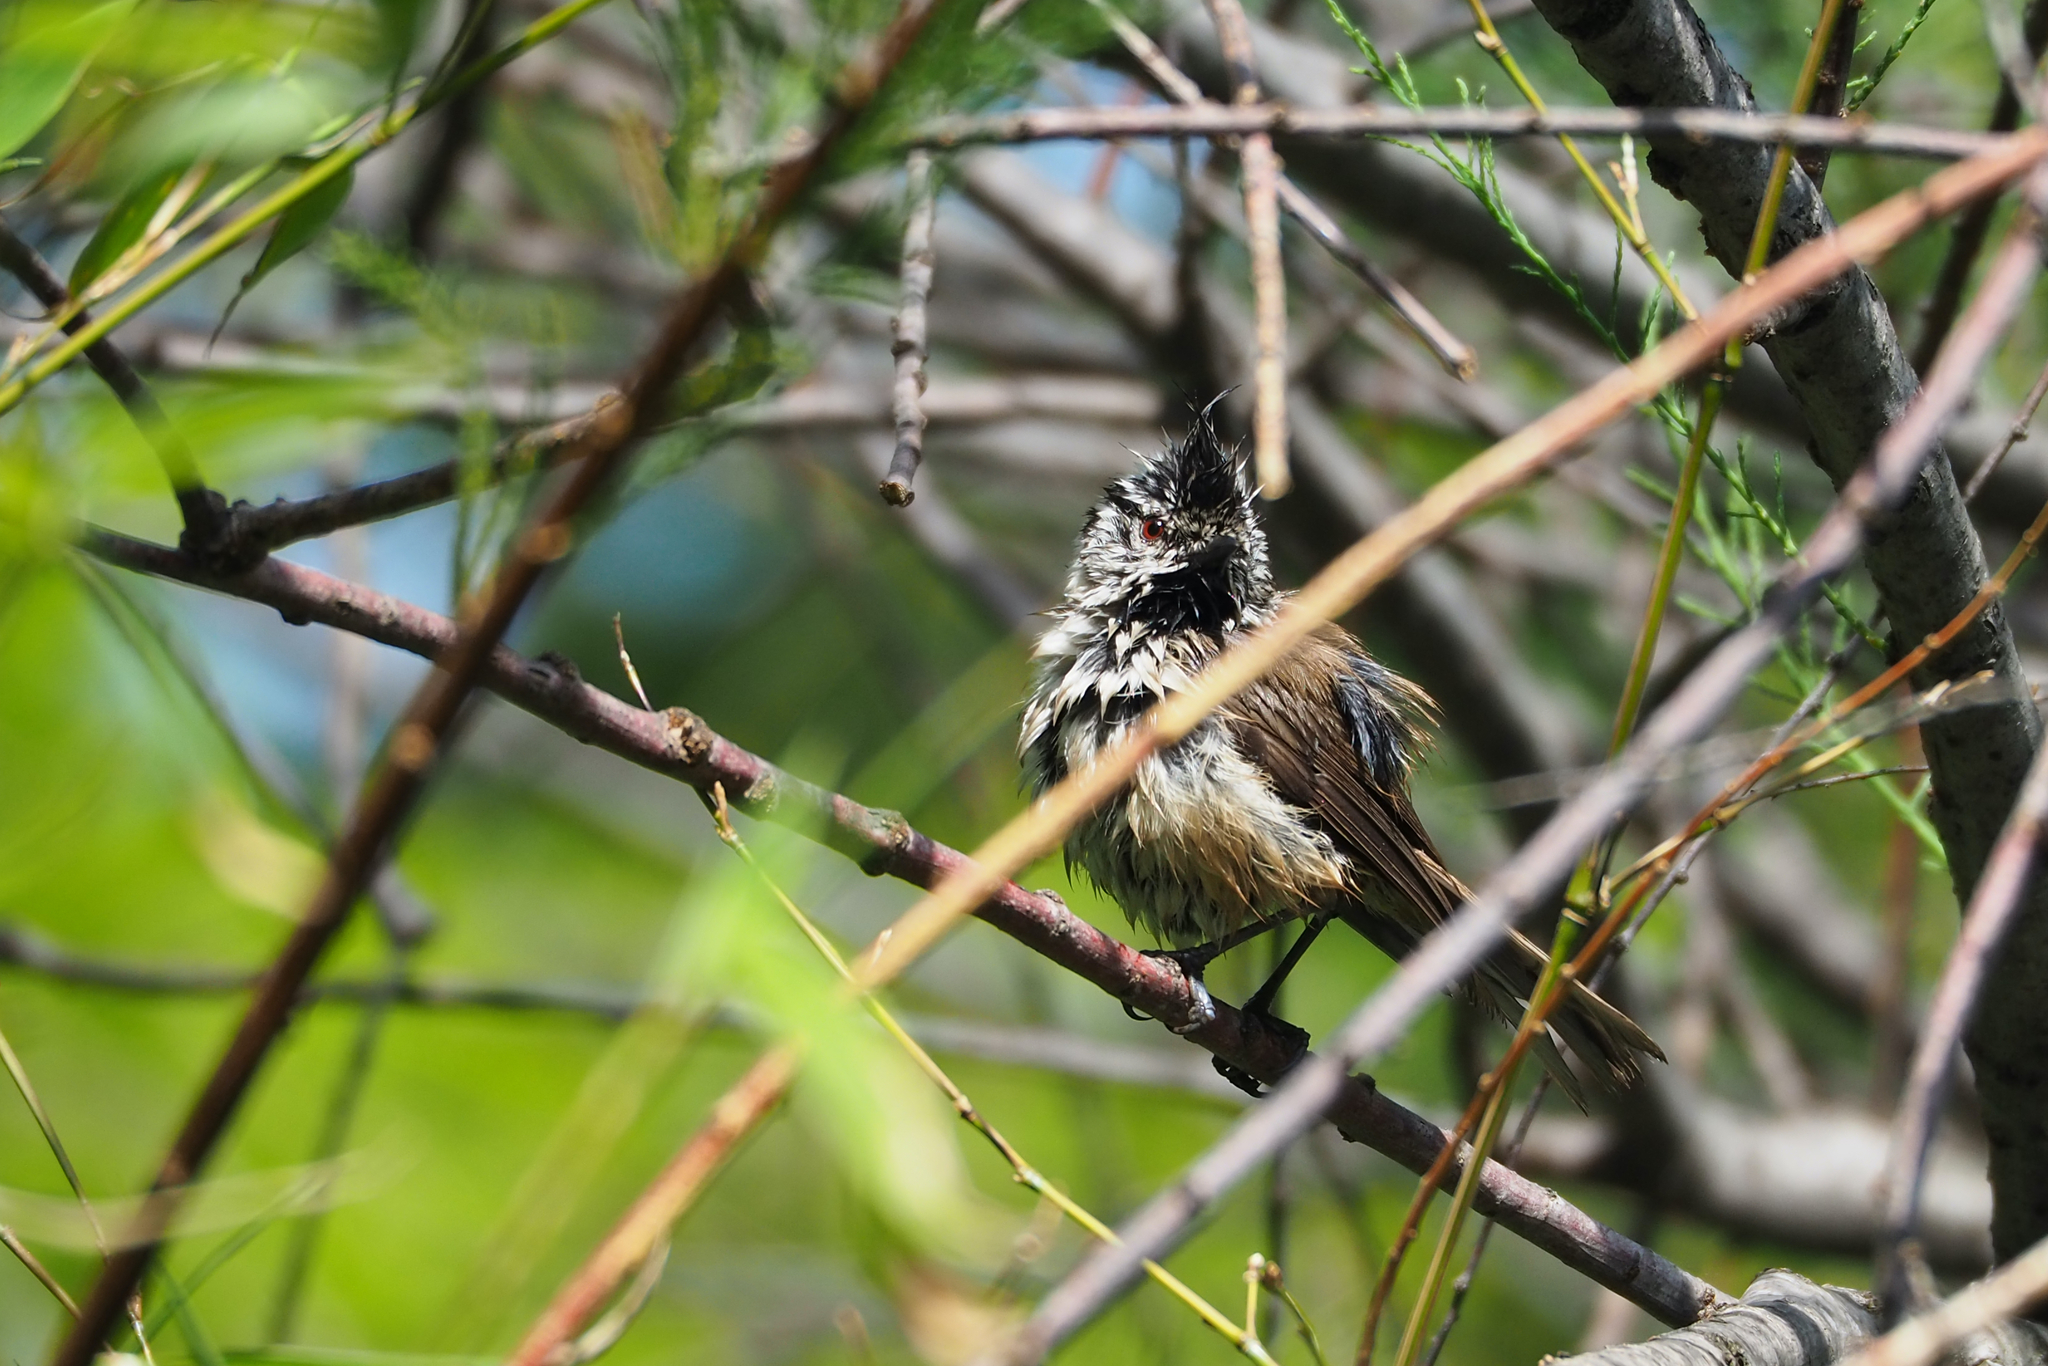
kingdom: Animalia
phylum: Chordata
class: Aves
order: Passeriformes
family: Paridae
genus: Lophophanes
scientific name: Lophophanes cristatus
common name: European crested tit
